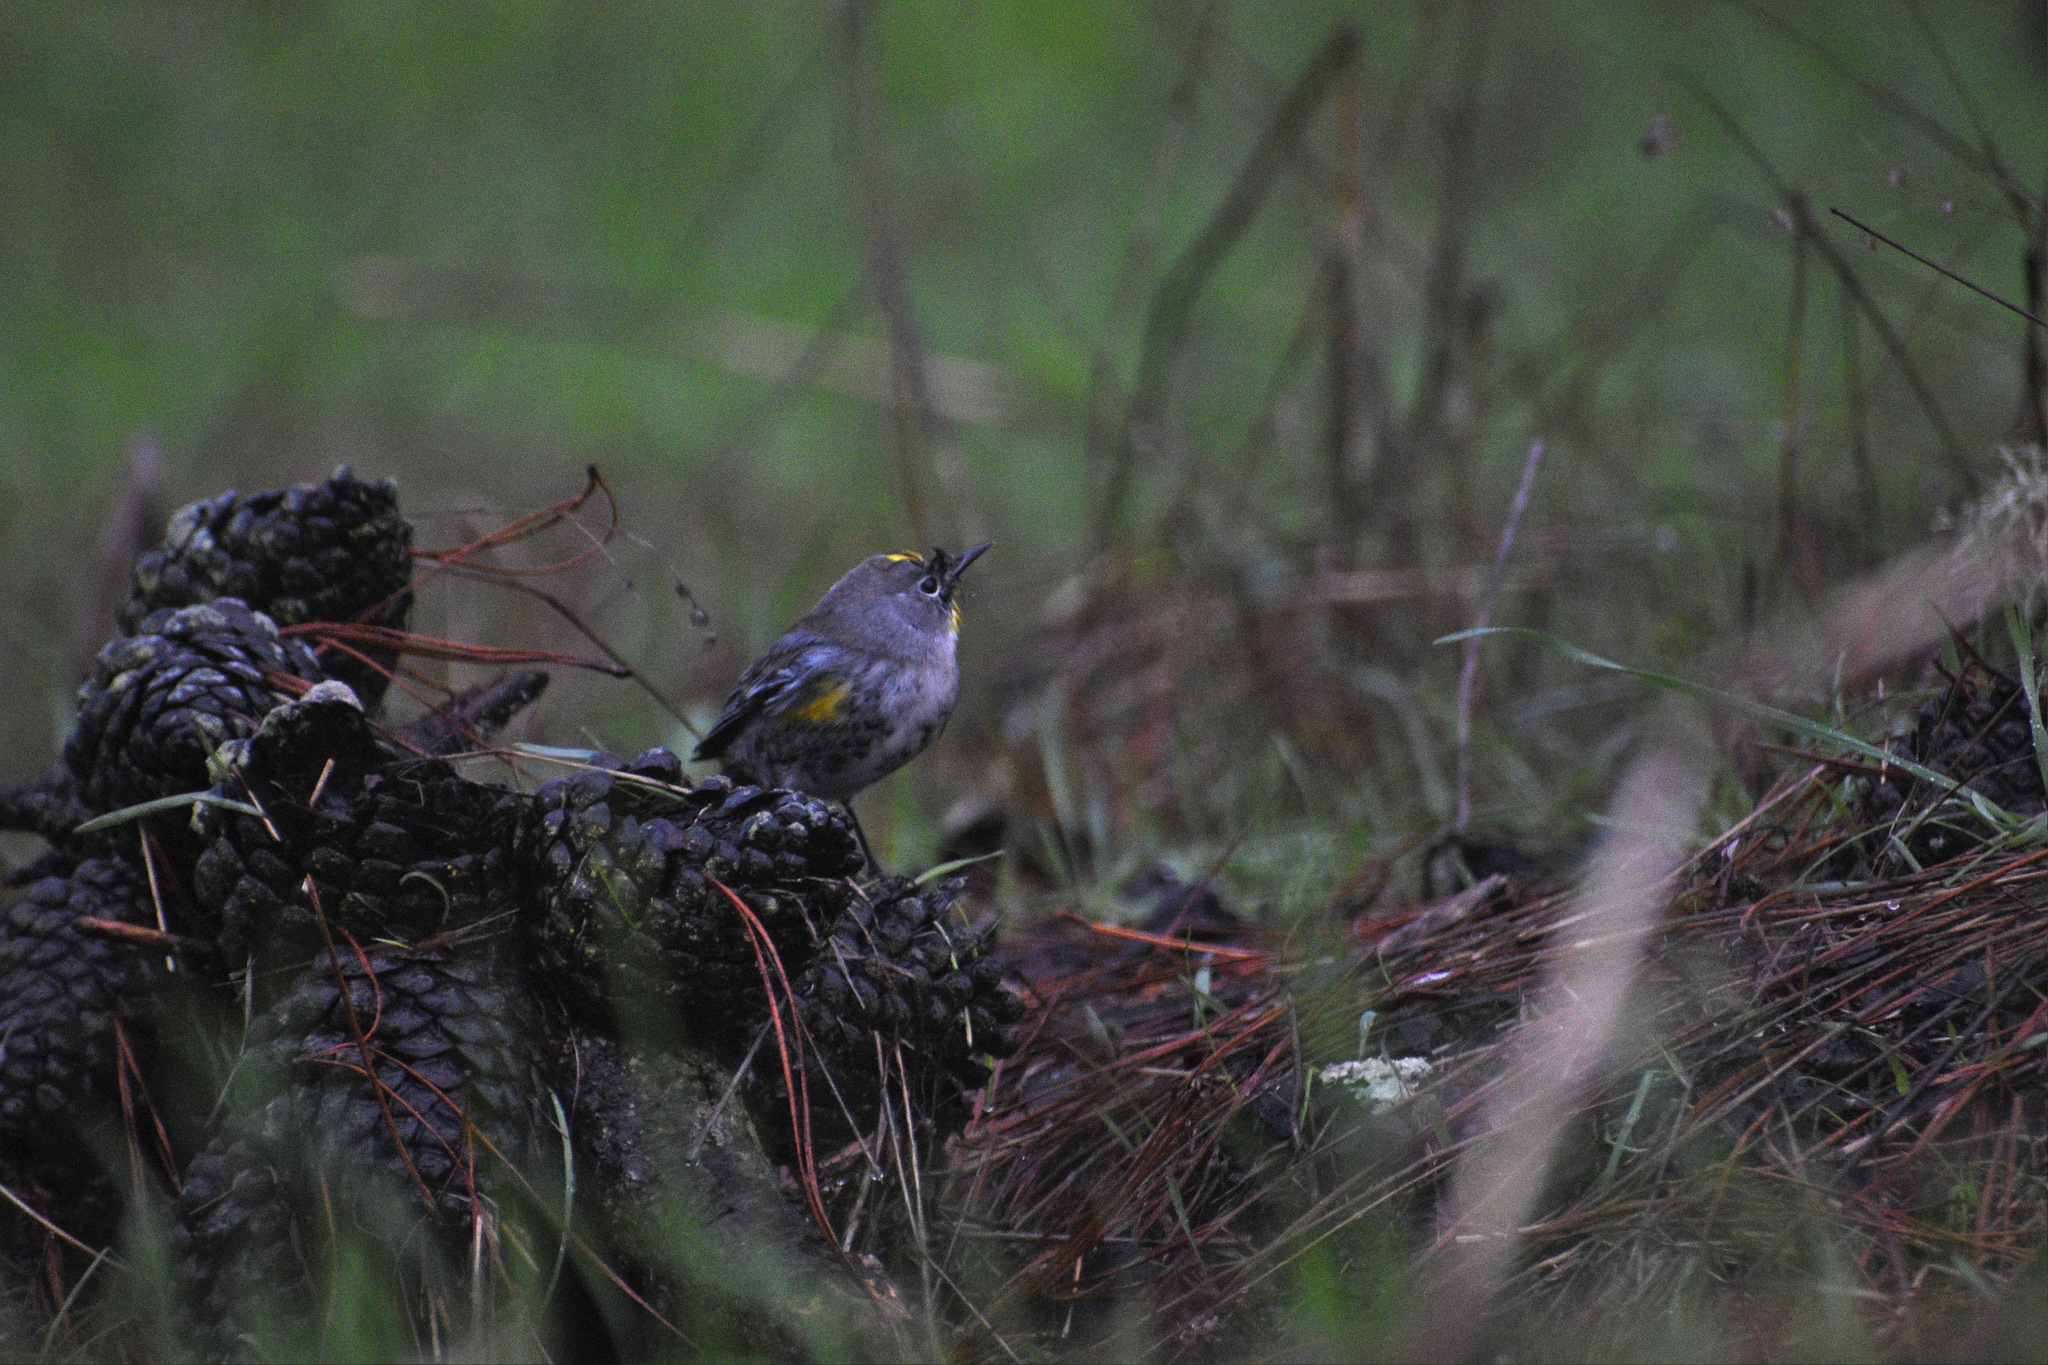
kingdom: Animalia
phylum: Chordata
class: Aves
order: Passeriformes
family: Parulidae
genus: Setophaga
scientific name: Setophaga coronata
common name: Myrtle warbler
